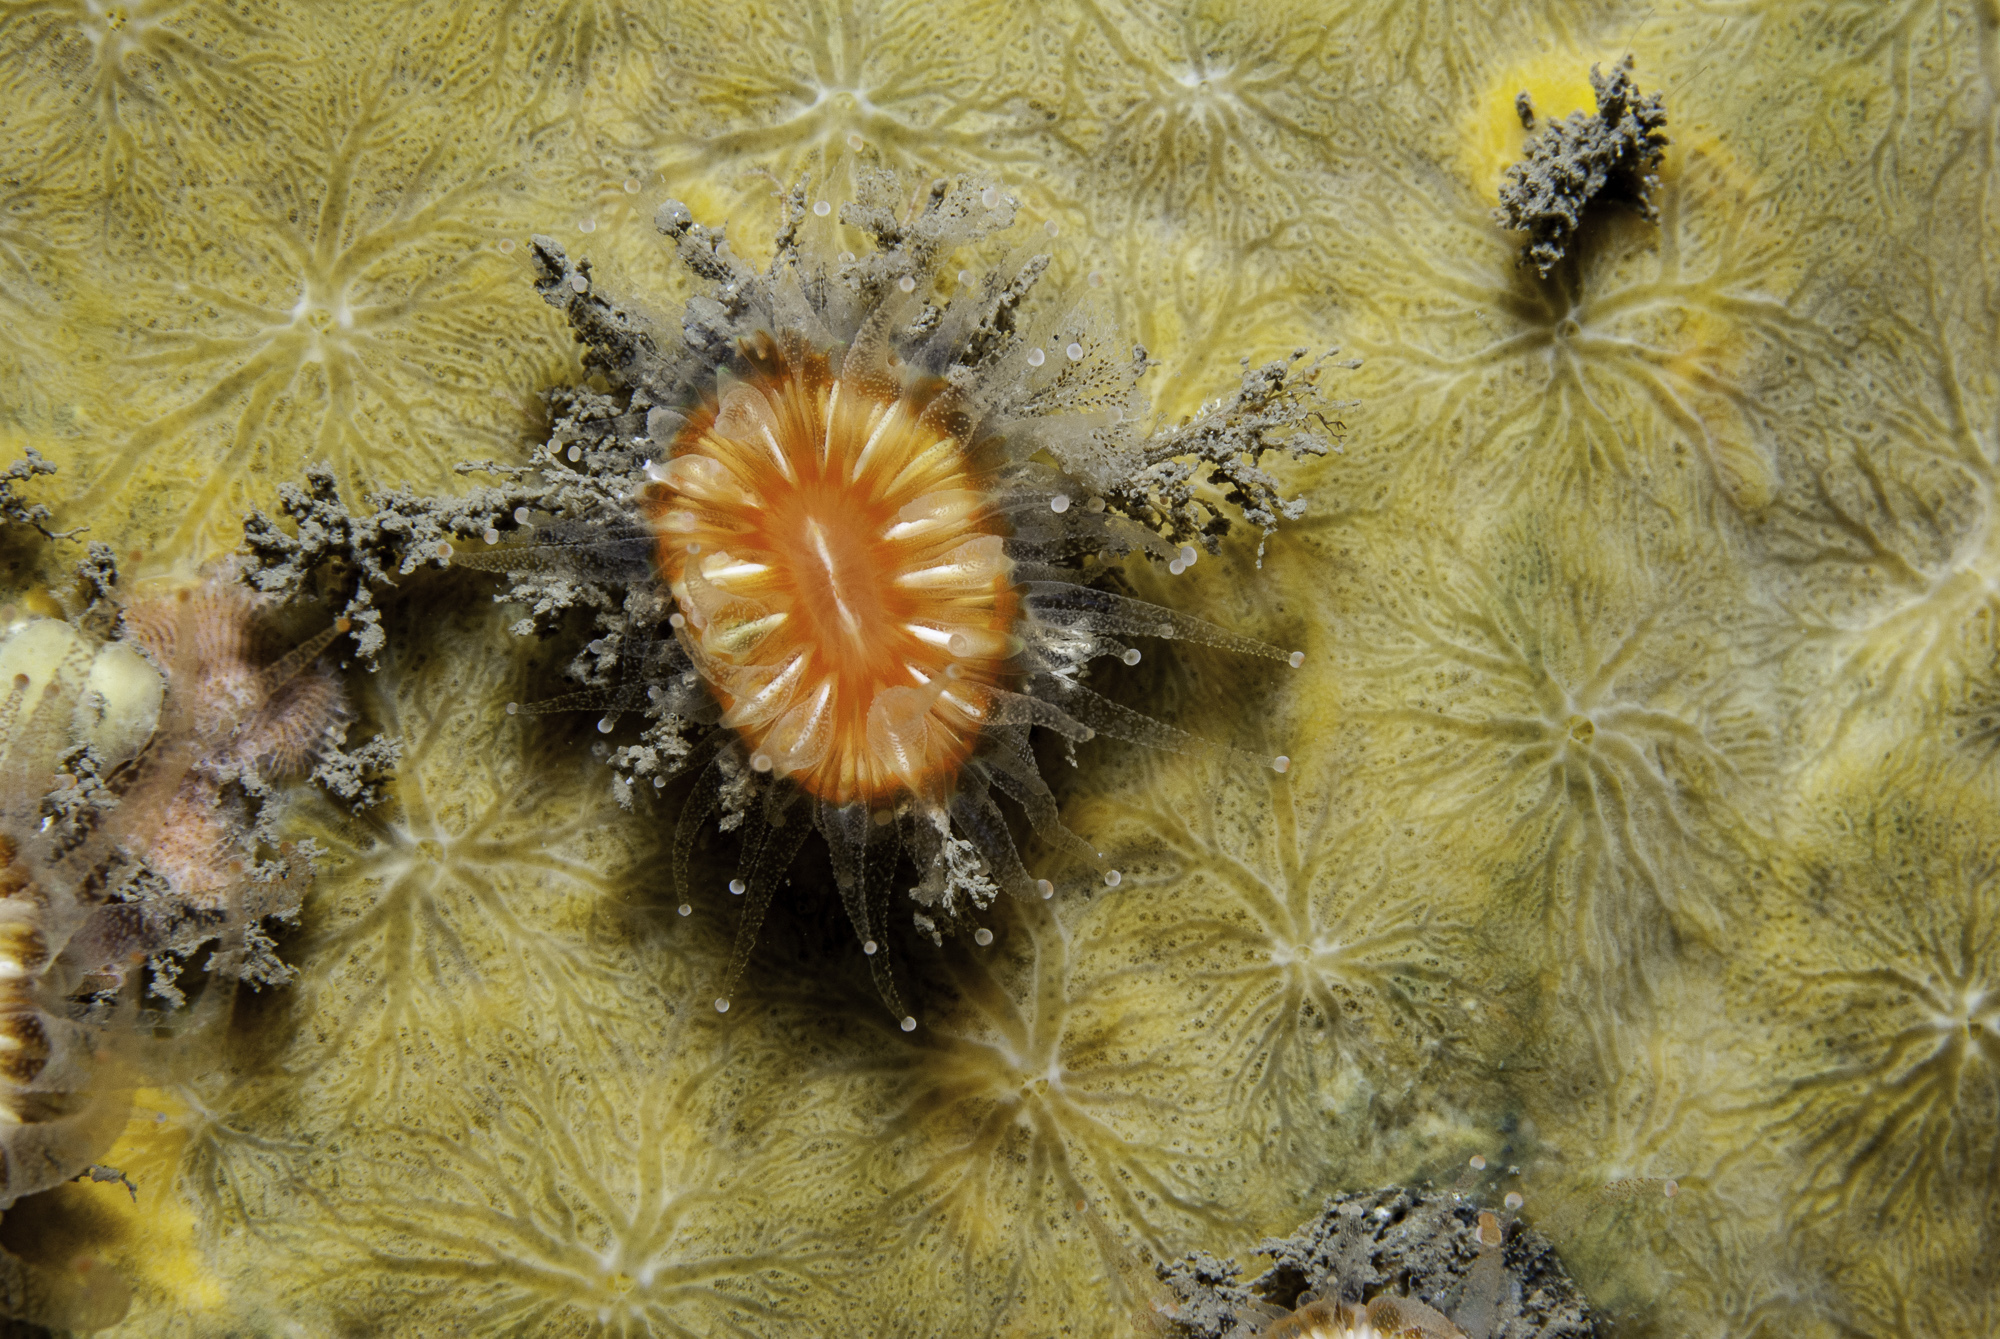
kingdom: Animalia
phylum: Porifera
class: Demospongiae
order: Poecilosclerida
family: Hymedesmiidae
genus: Hymedesmia
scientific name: Hymedesmia stellifera
